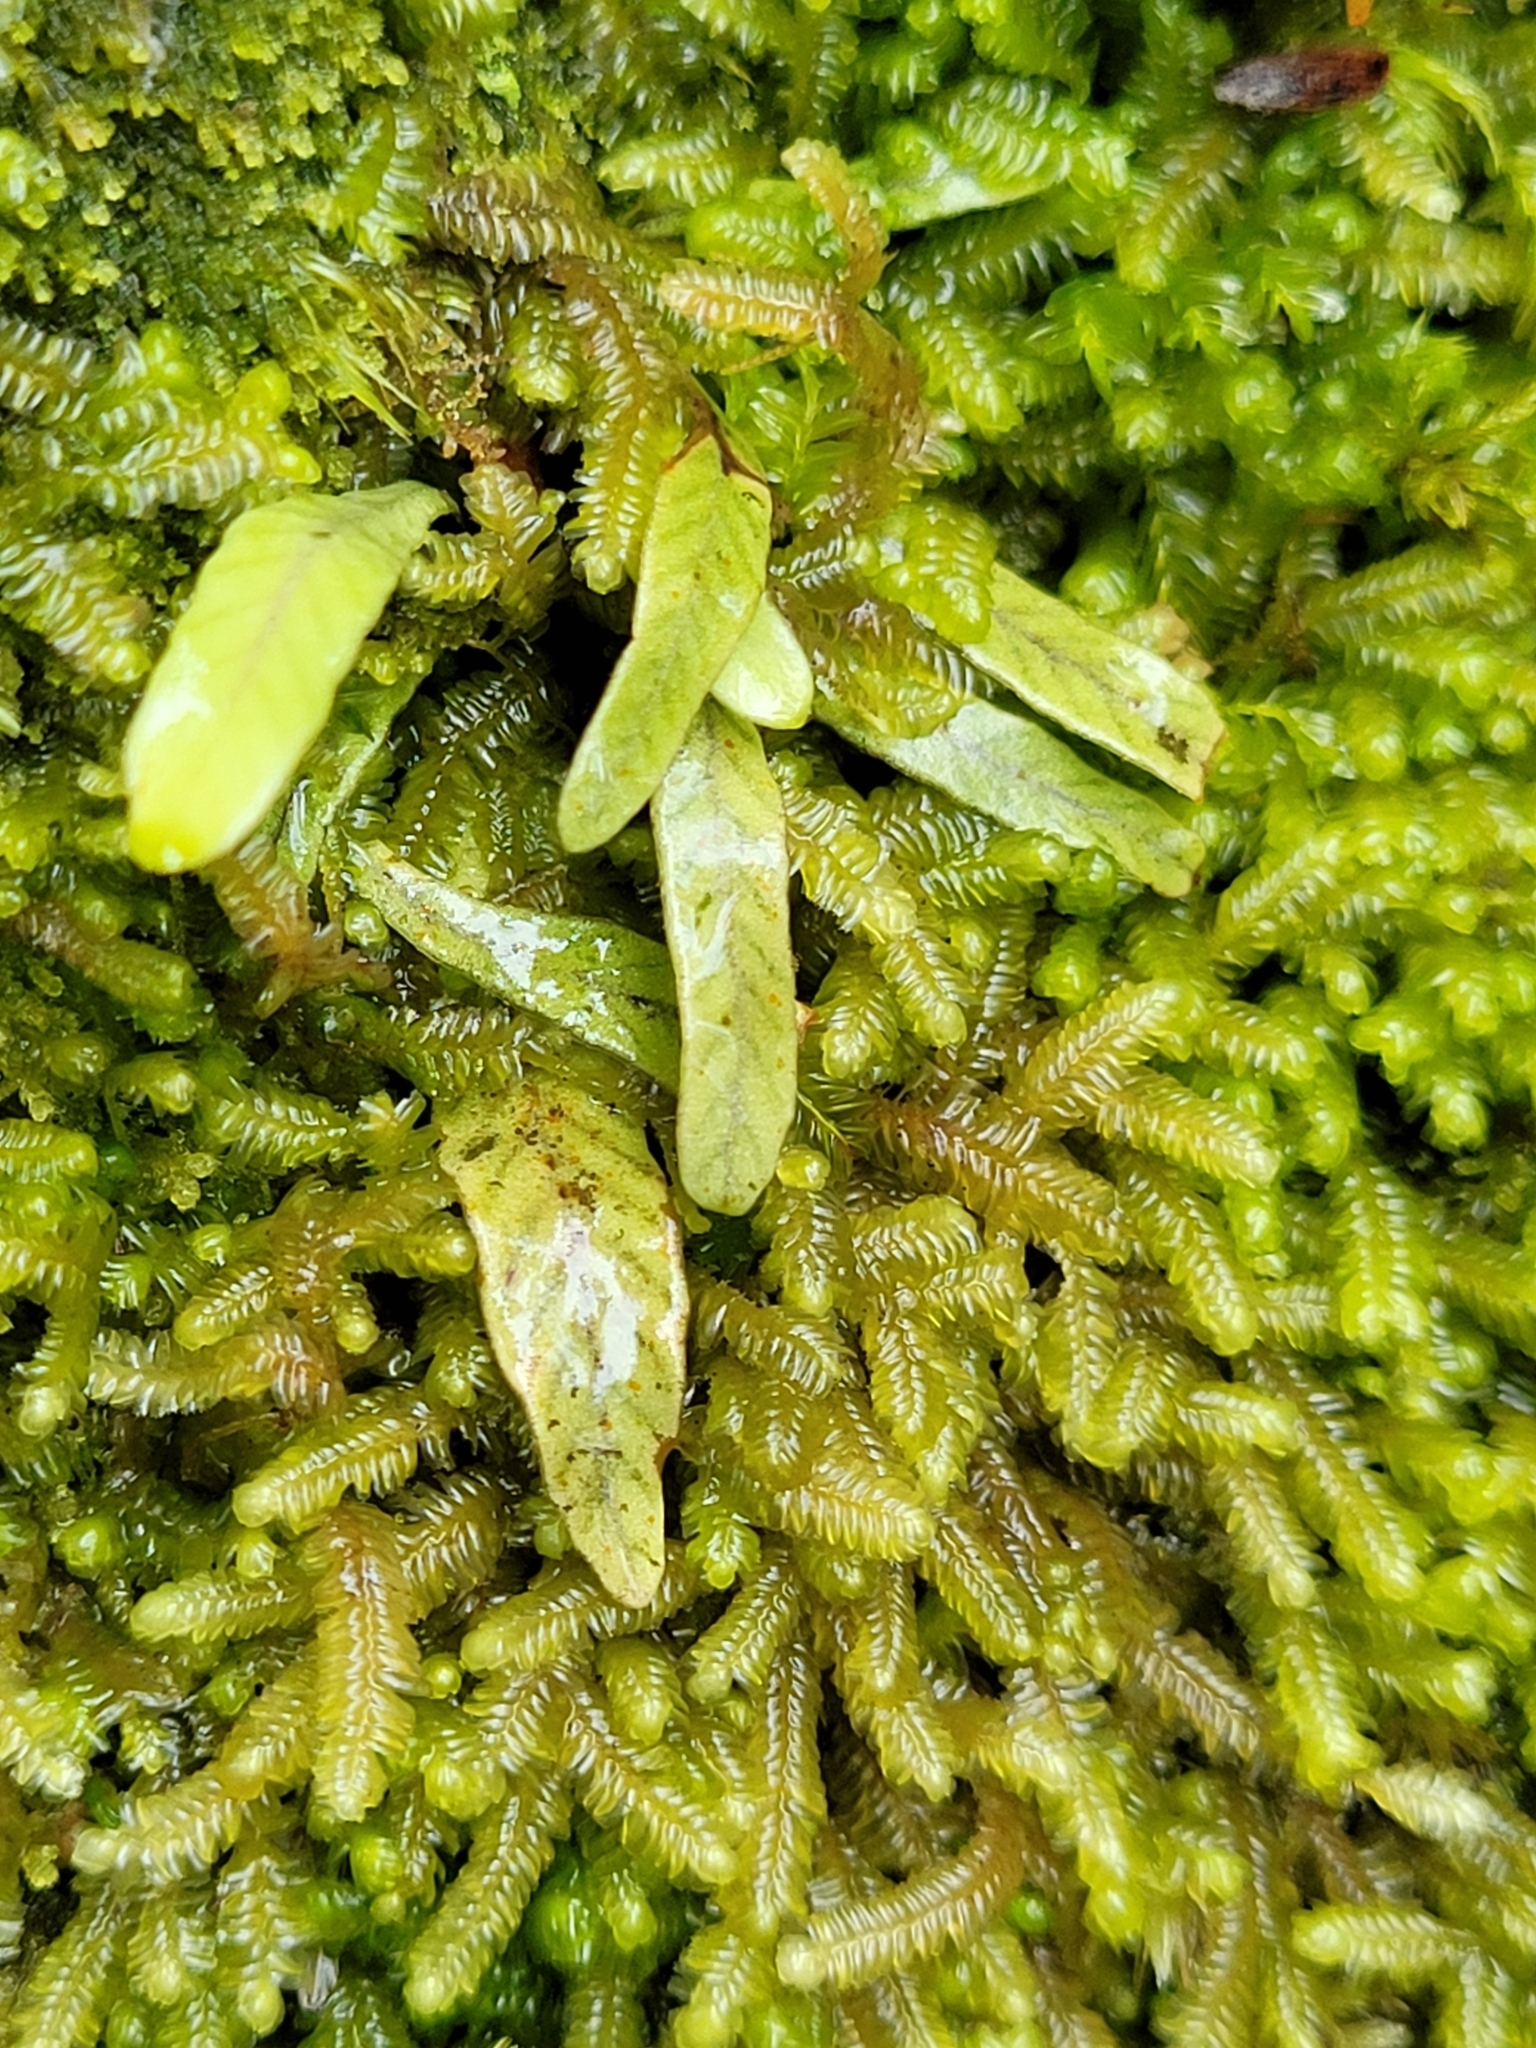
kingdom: Plantae
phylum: Tracheophyta
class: Polypodiopsida
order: Polypodiales
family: Polypodiaceae
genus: Notogrammitis
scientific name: Notogrammitis billardierei
